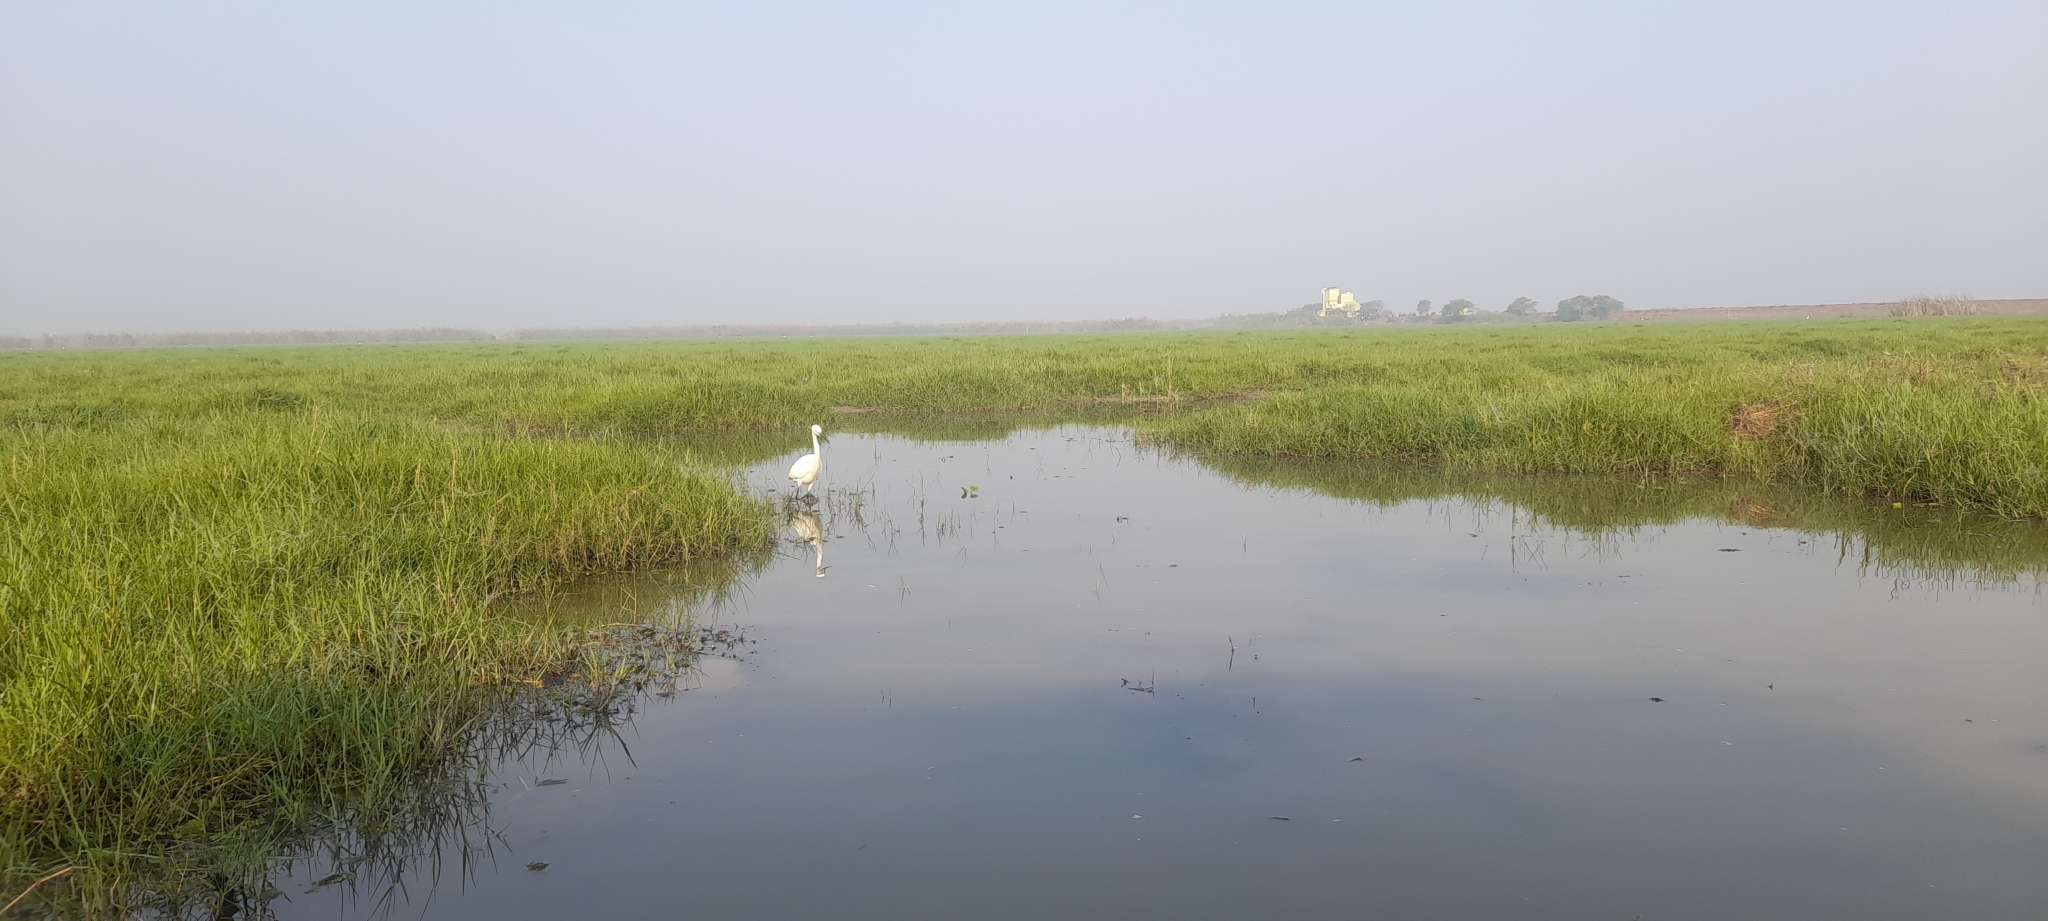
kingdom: Animalia
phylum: Chordata
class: Aves
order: Pelecaniformes
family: Ardeidae
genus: Egretta
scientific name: Egretta garzetta
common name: Little egret
